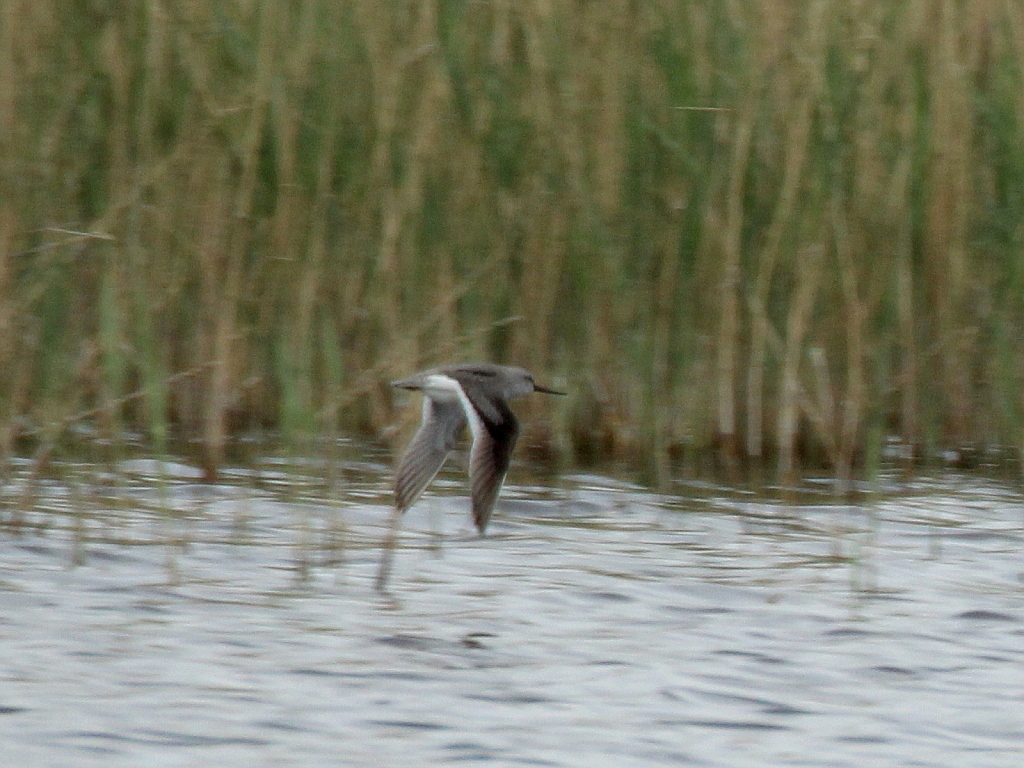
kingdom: Animalia
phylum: Chordata
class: Aves
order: Charadriiformes
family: Scolopacidae
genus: Xenus
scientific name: Xenus cinereus
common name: Terek sandpiper
